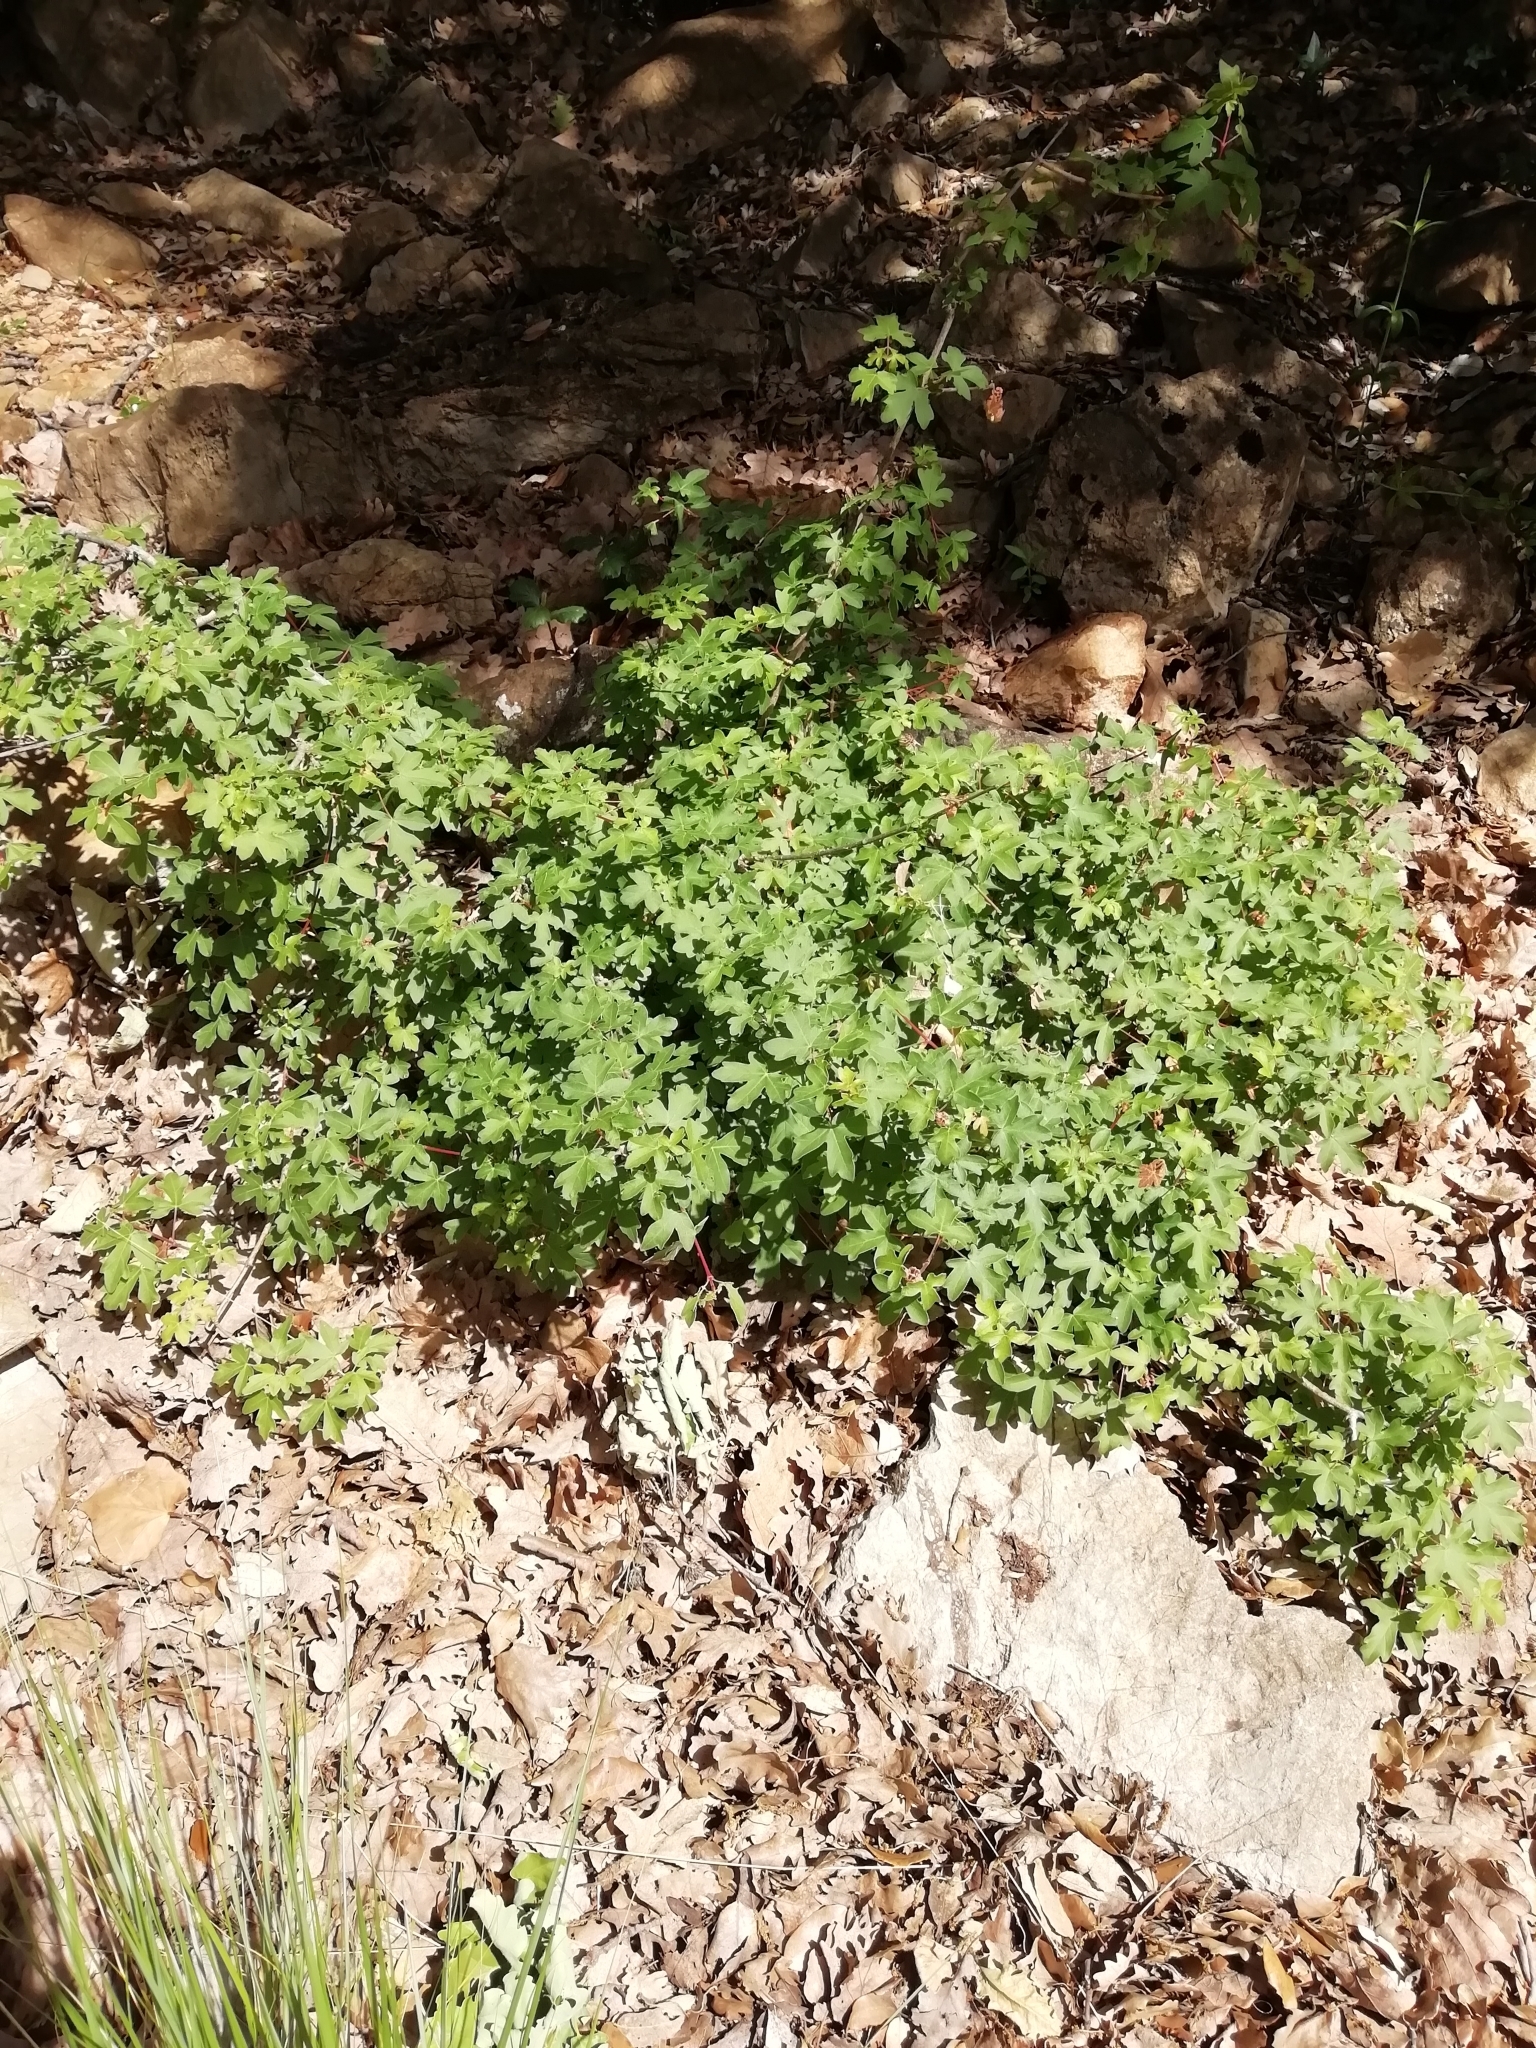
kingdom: Plantae
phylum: Tracheophyta
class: Magnoliopsida
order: Sapindales
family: Sapindaceae
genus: Acer
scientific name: Acer campestre
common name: Field maple
